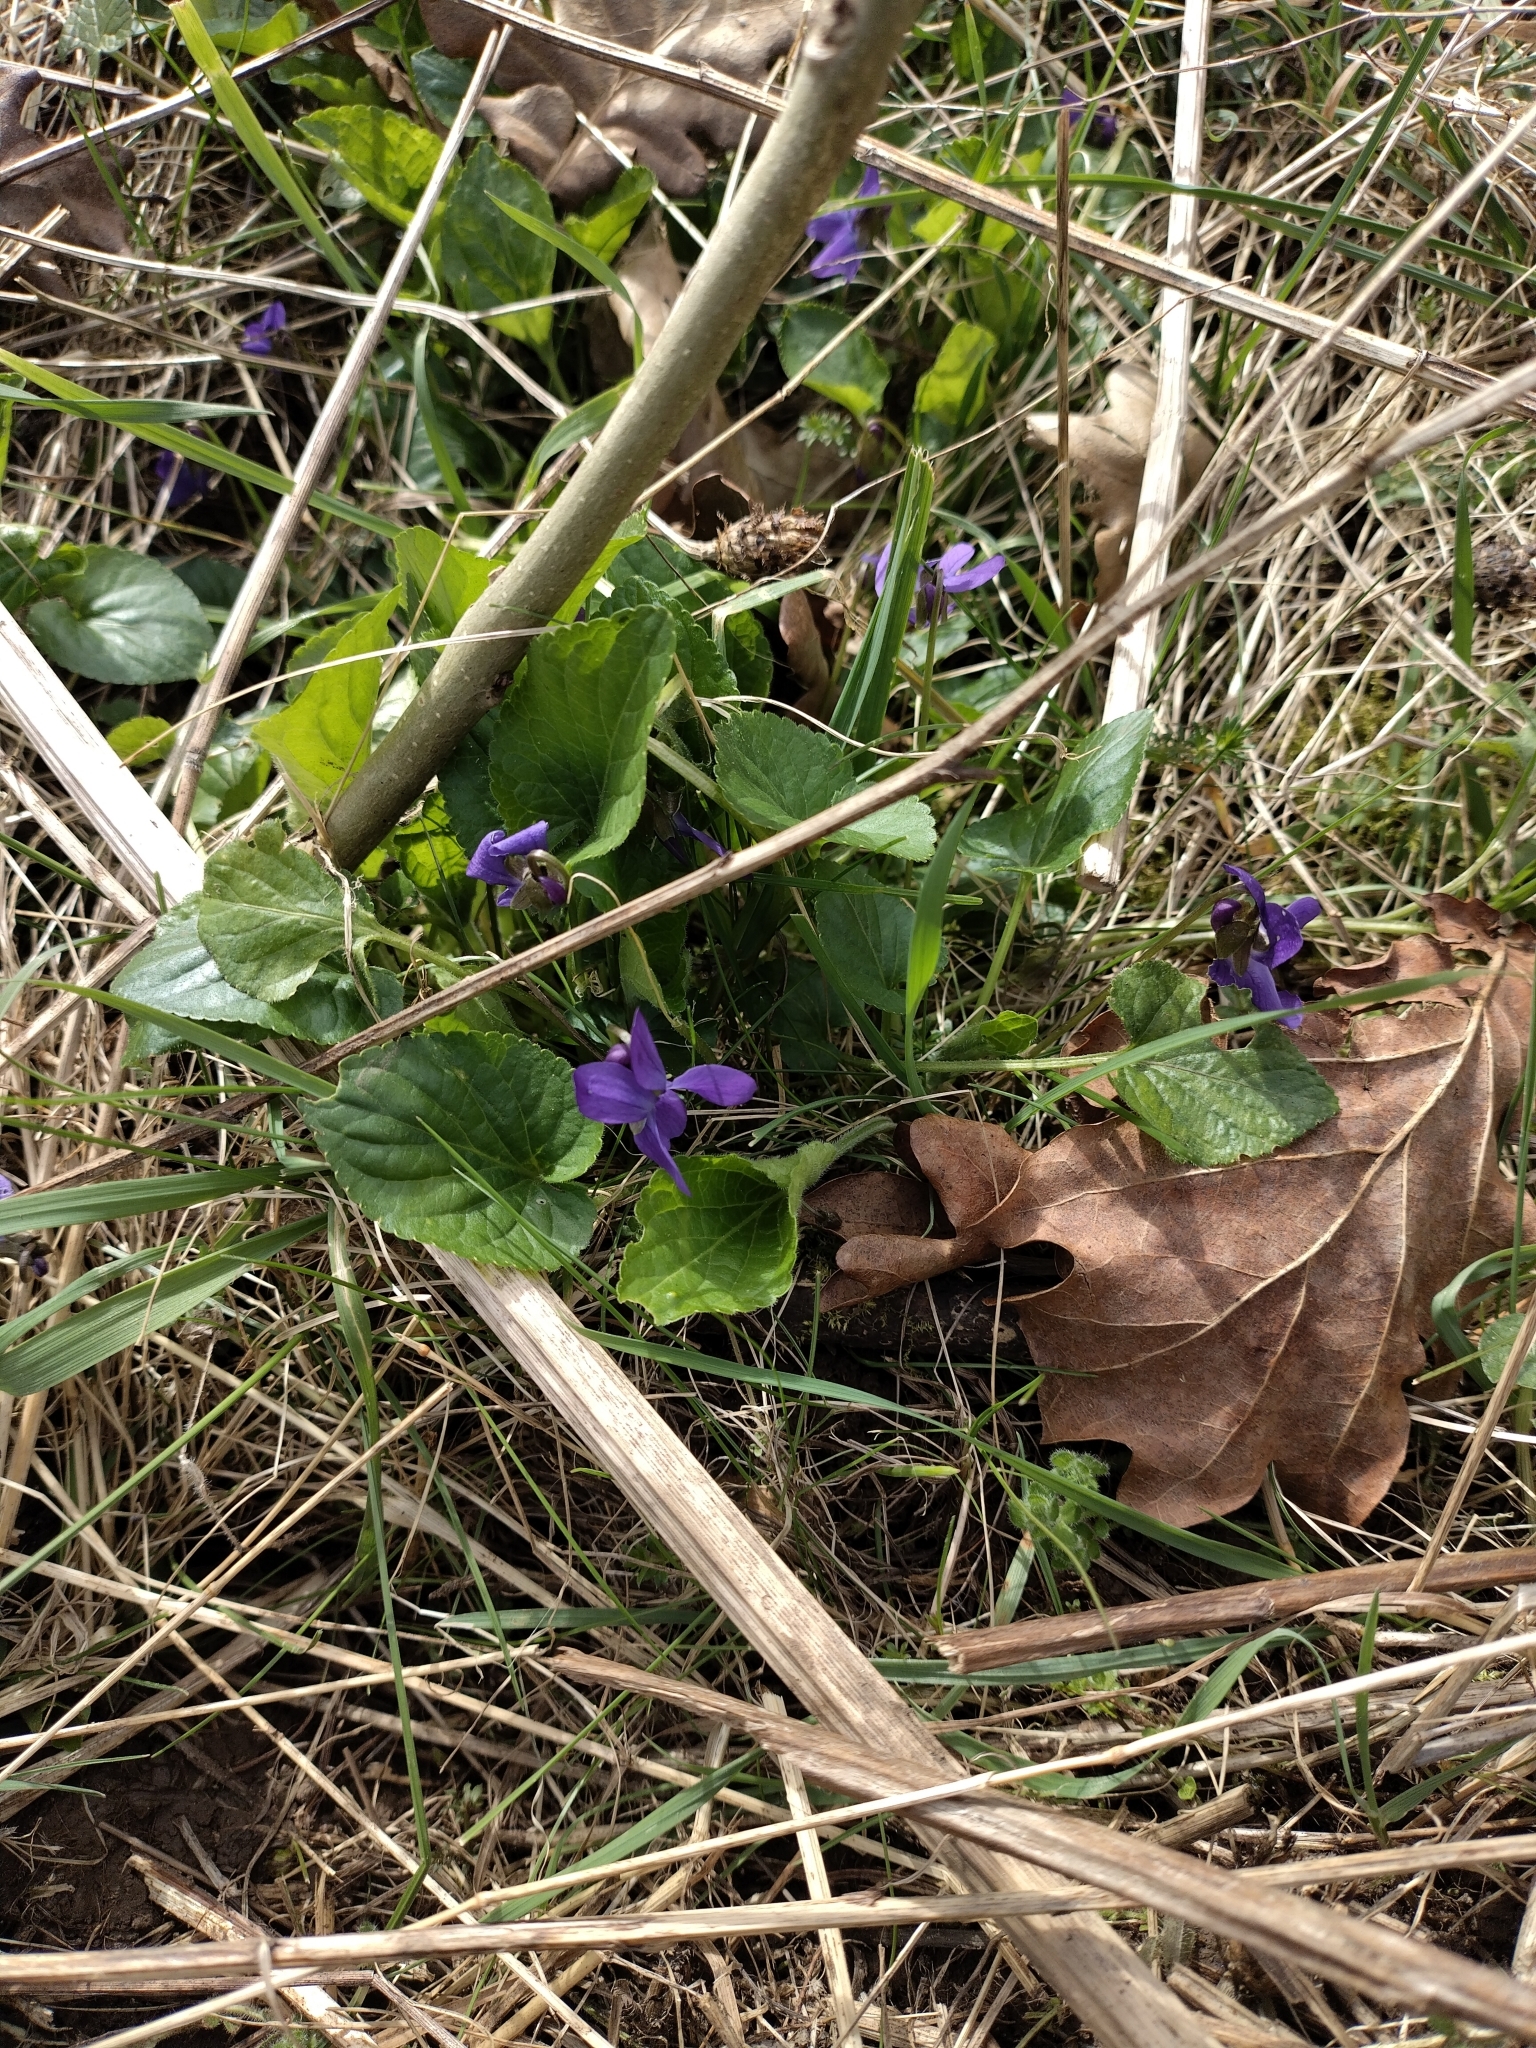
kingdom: Plantae
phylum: Tracheophyta
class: Magnoliopsida
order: Malpighiales
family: Violaceae
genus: Viola
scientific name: Viola odorata
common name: Sweet violet
